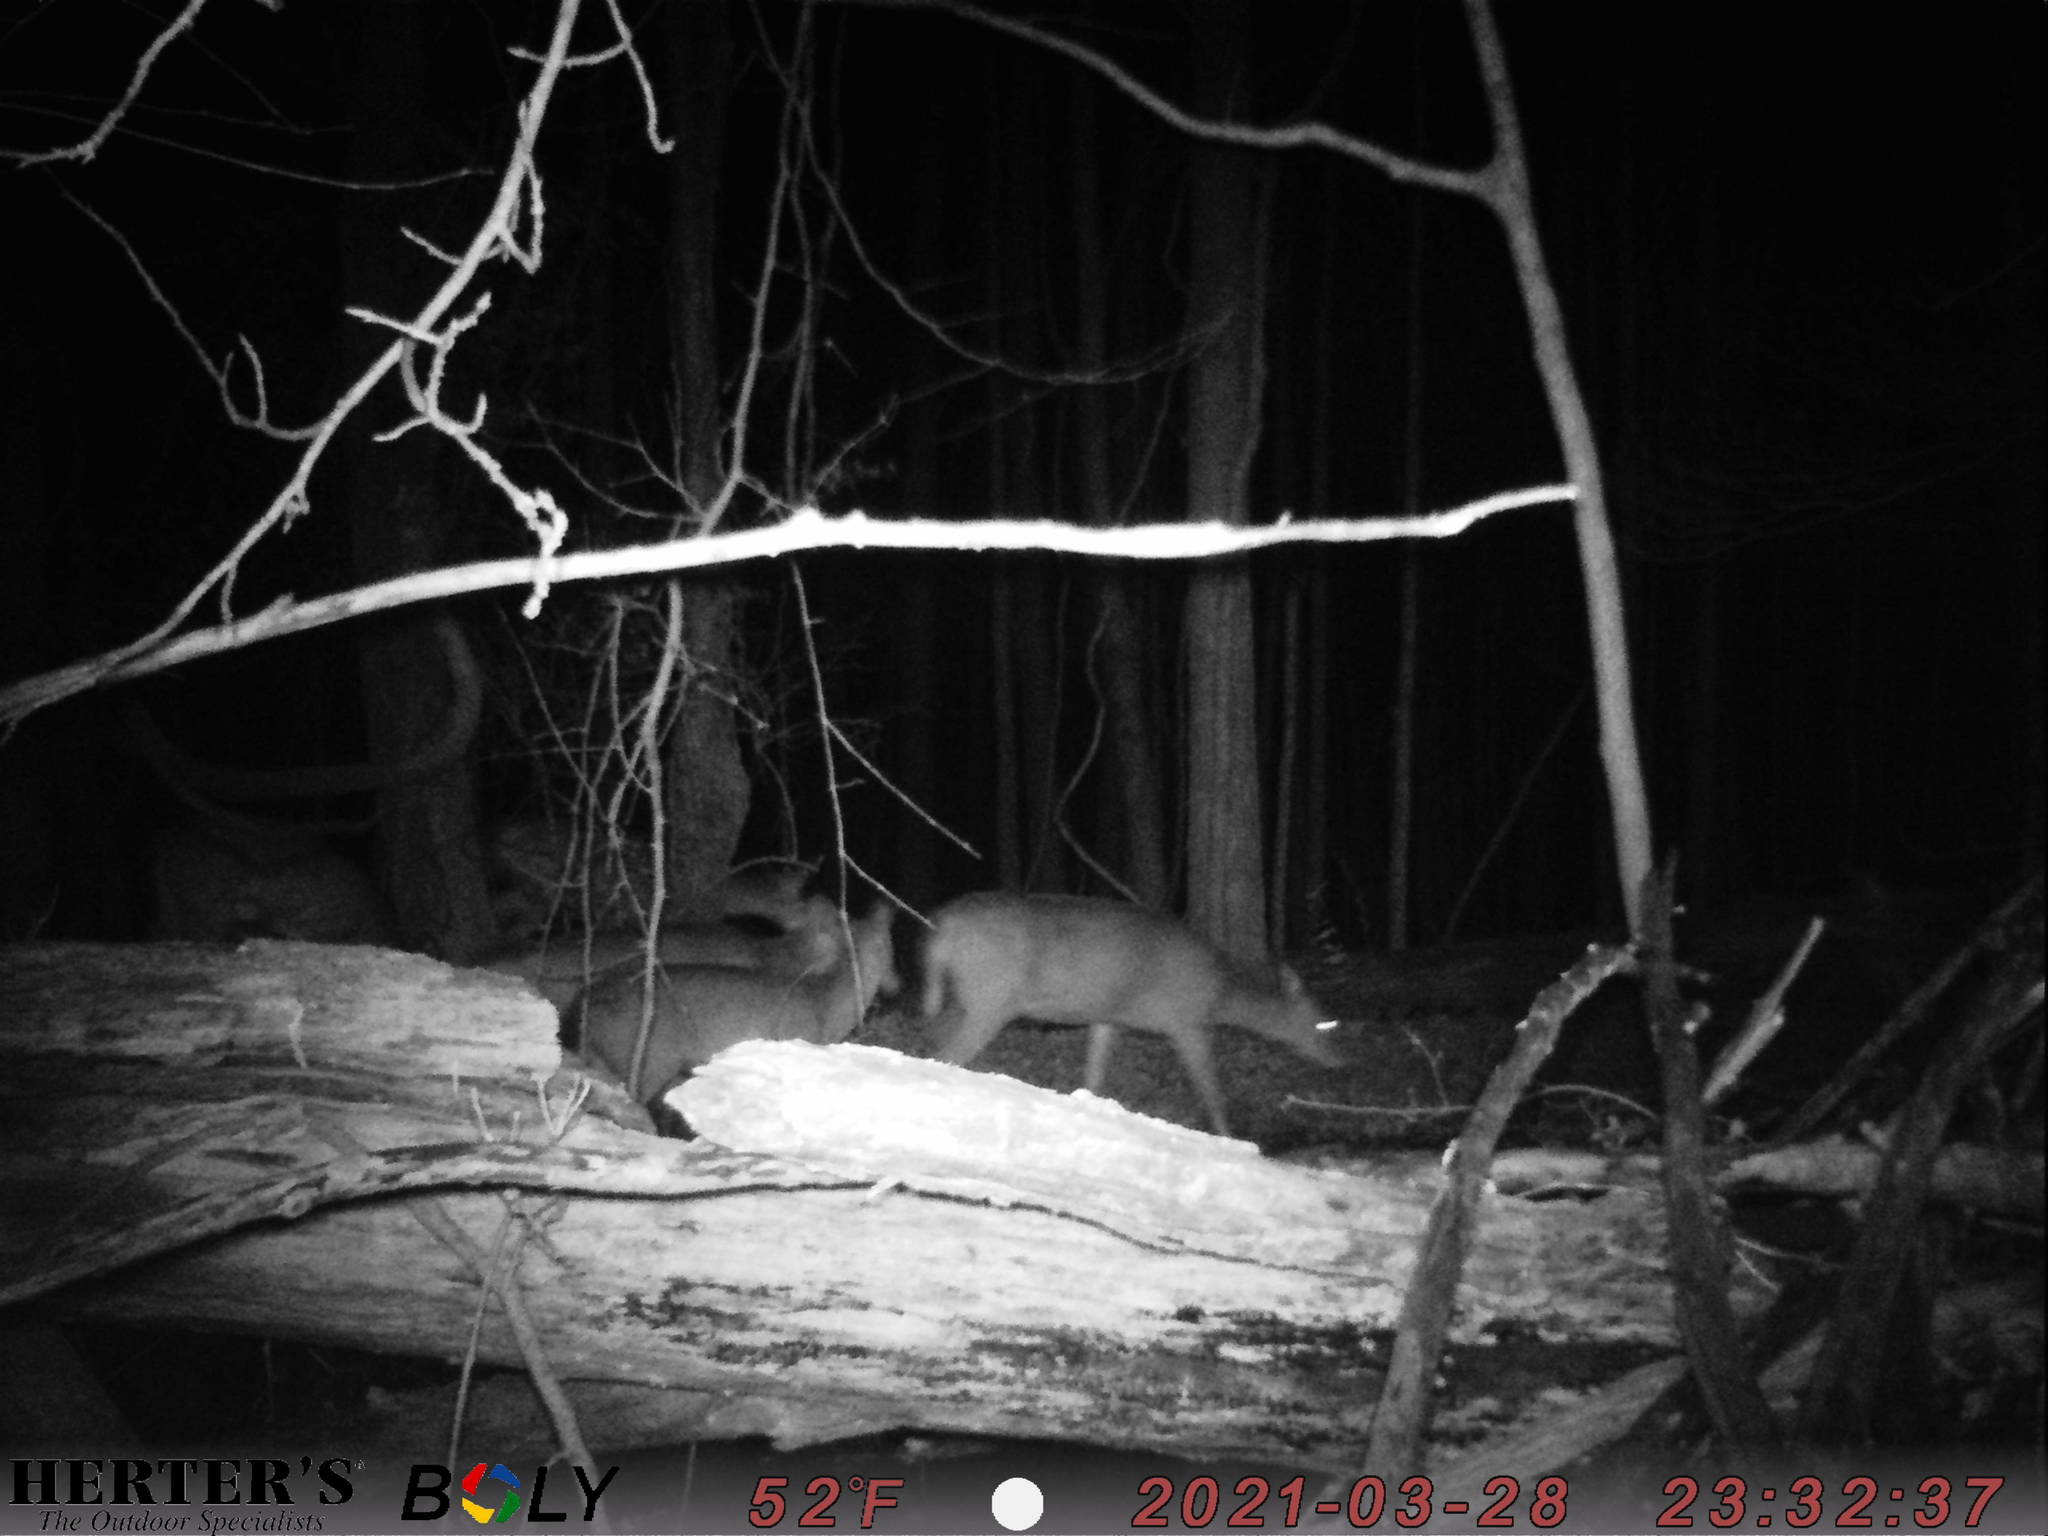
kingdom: Animalia
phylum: Chordata
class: Mammalia
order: Artiodactyla
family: Cervidae
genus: Odocoileus
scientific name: Odocoileus virginianus
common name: White-tailed deer
